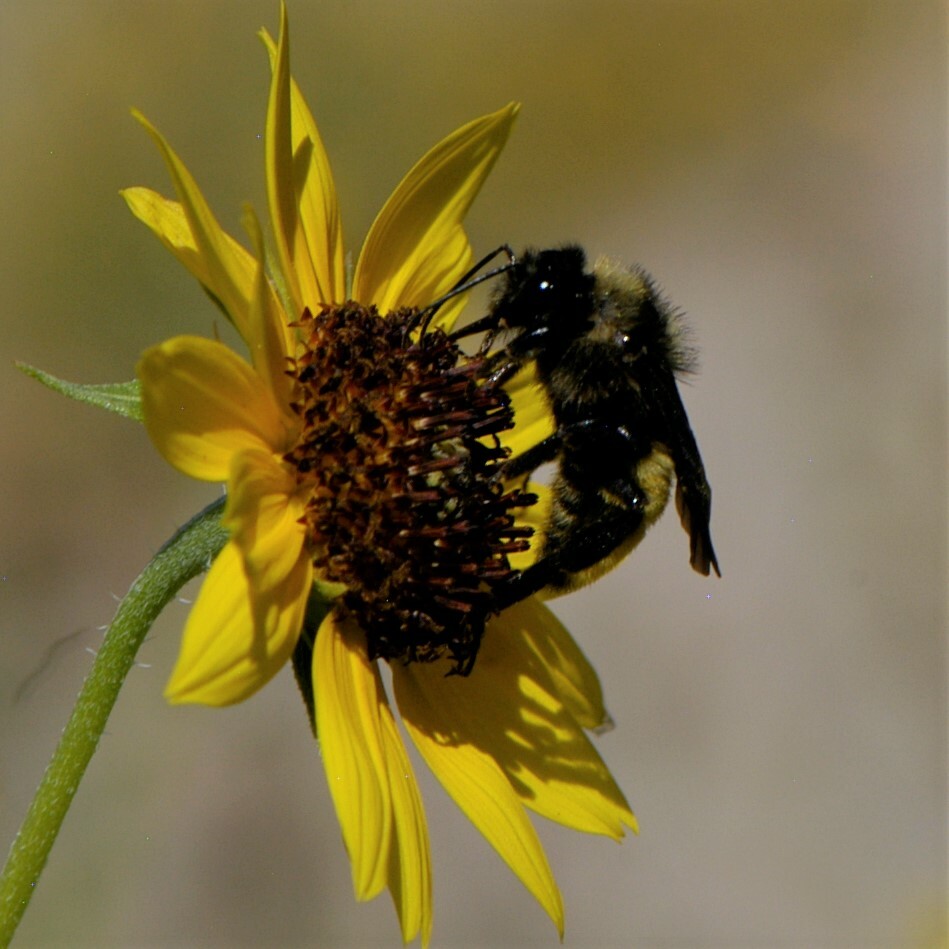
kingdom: Animalia
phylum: Arthropoda
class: Insecta
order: Hymenoptera
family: Apidae
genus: Bombus
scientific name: Bombus pensylvanicus
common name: Bumble bee
